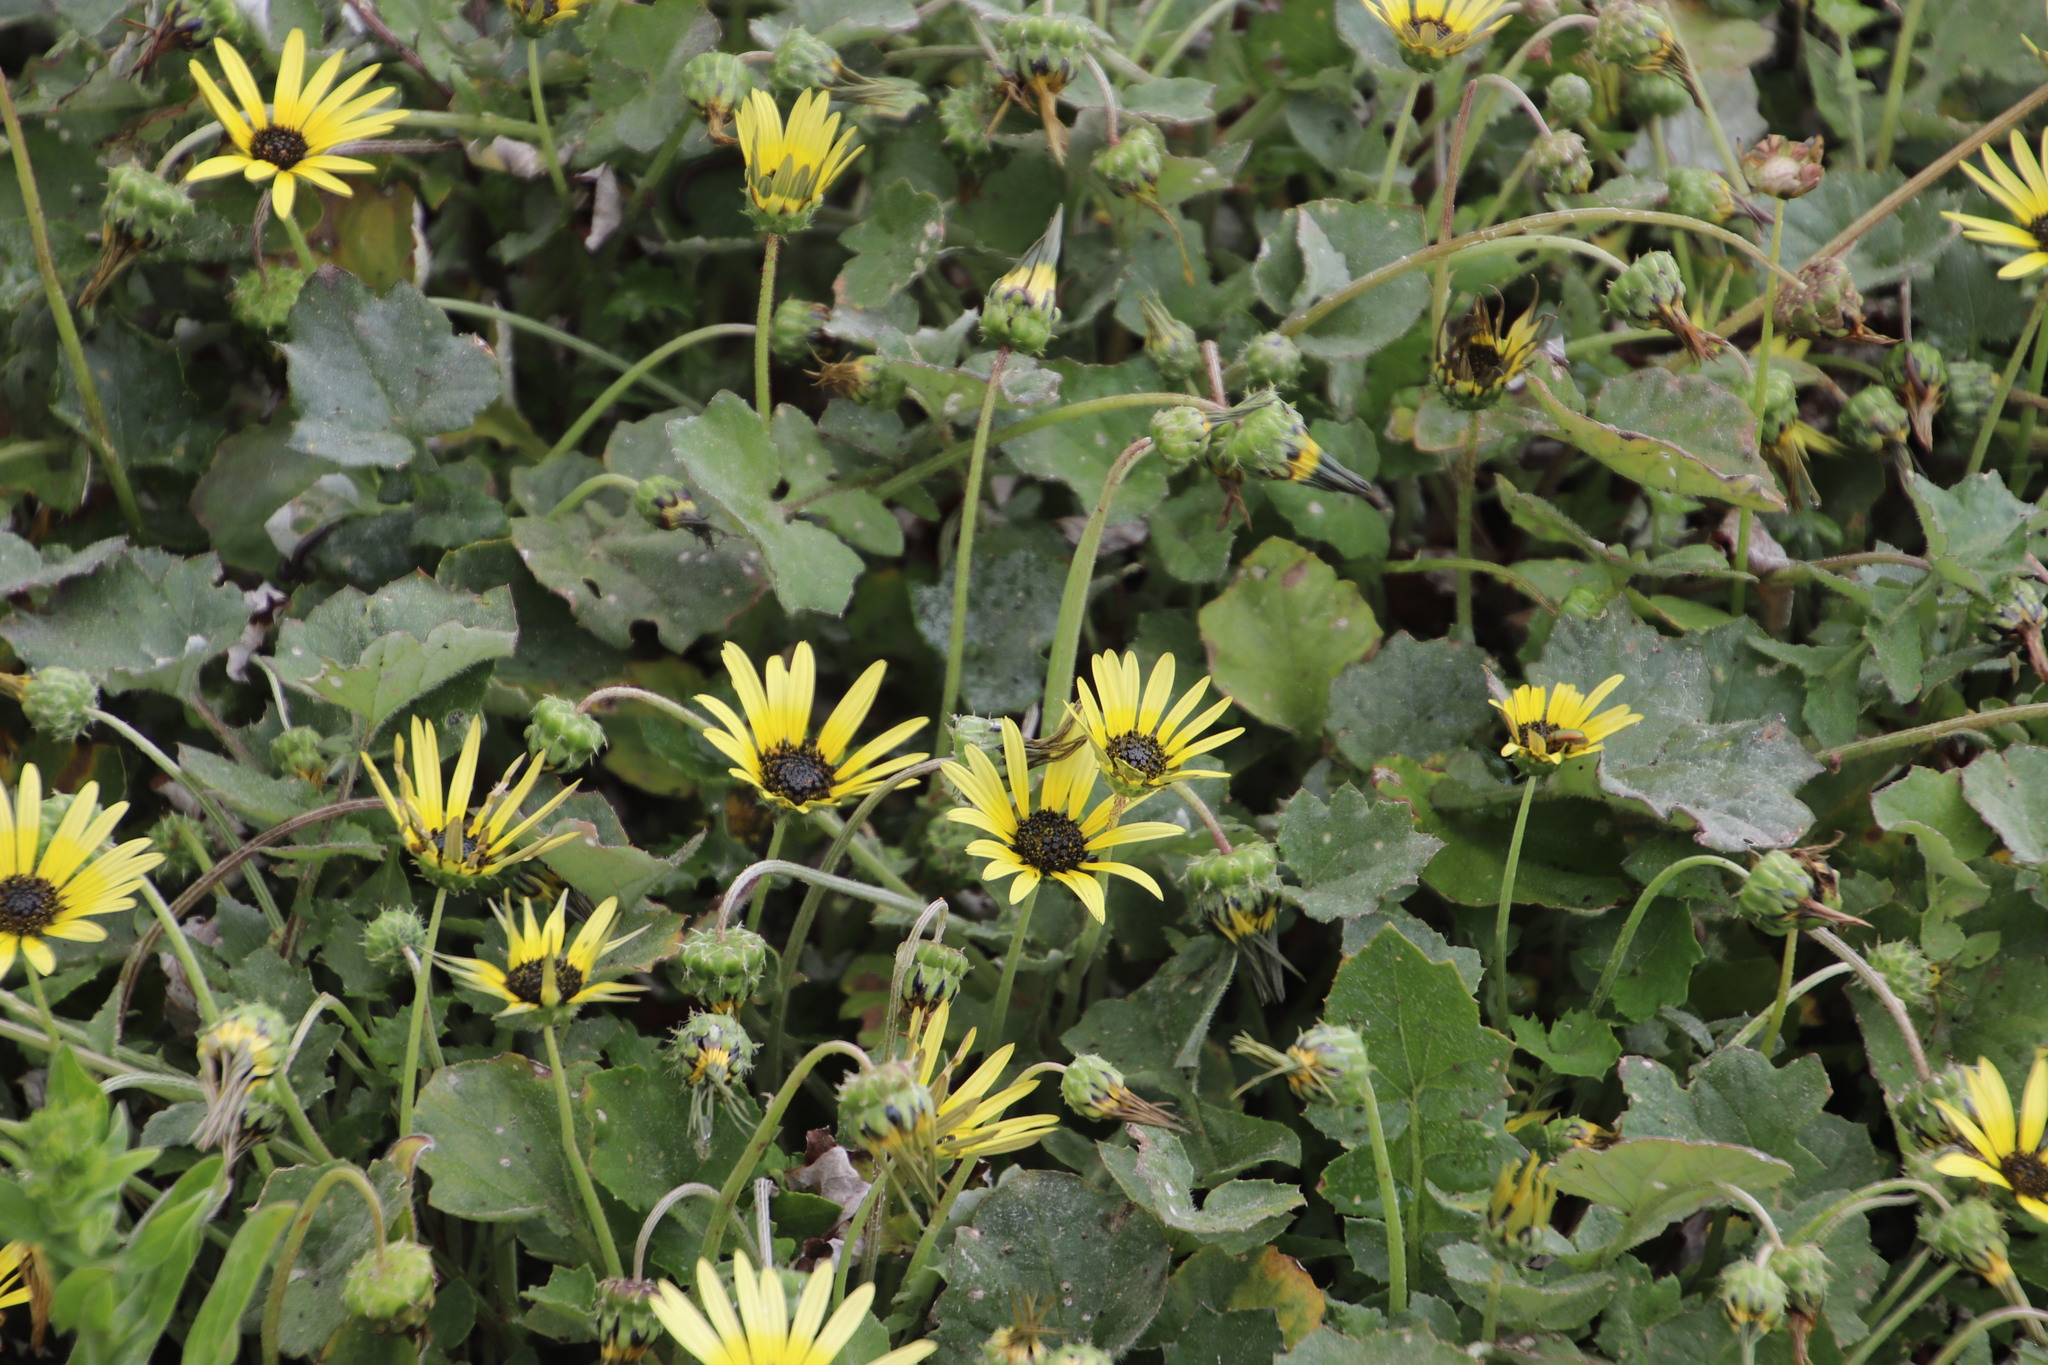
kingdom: Plantae
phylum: Tracheophyta
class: Magnoliopsida
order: Asterales
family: Asteraceae
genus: Arctotheca
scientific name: Arctotheca calendula
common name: Capeweed
